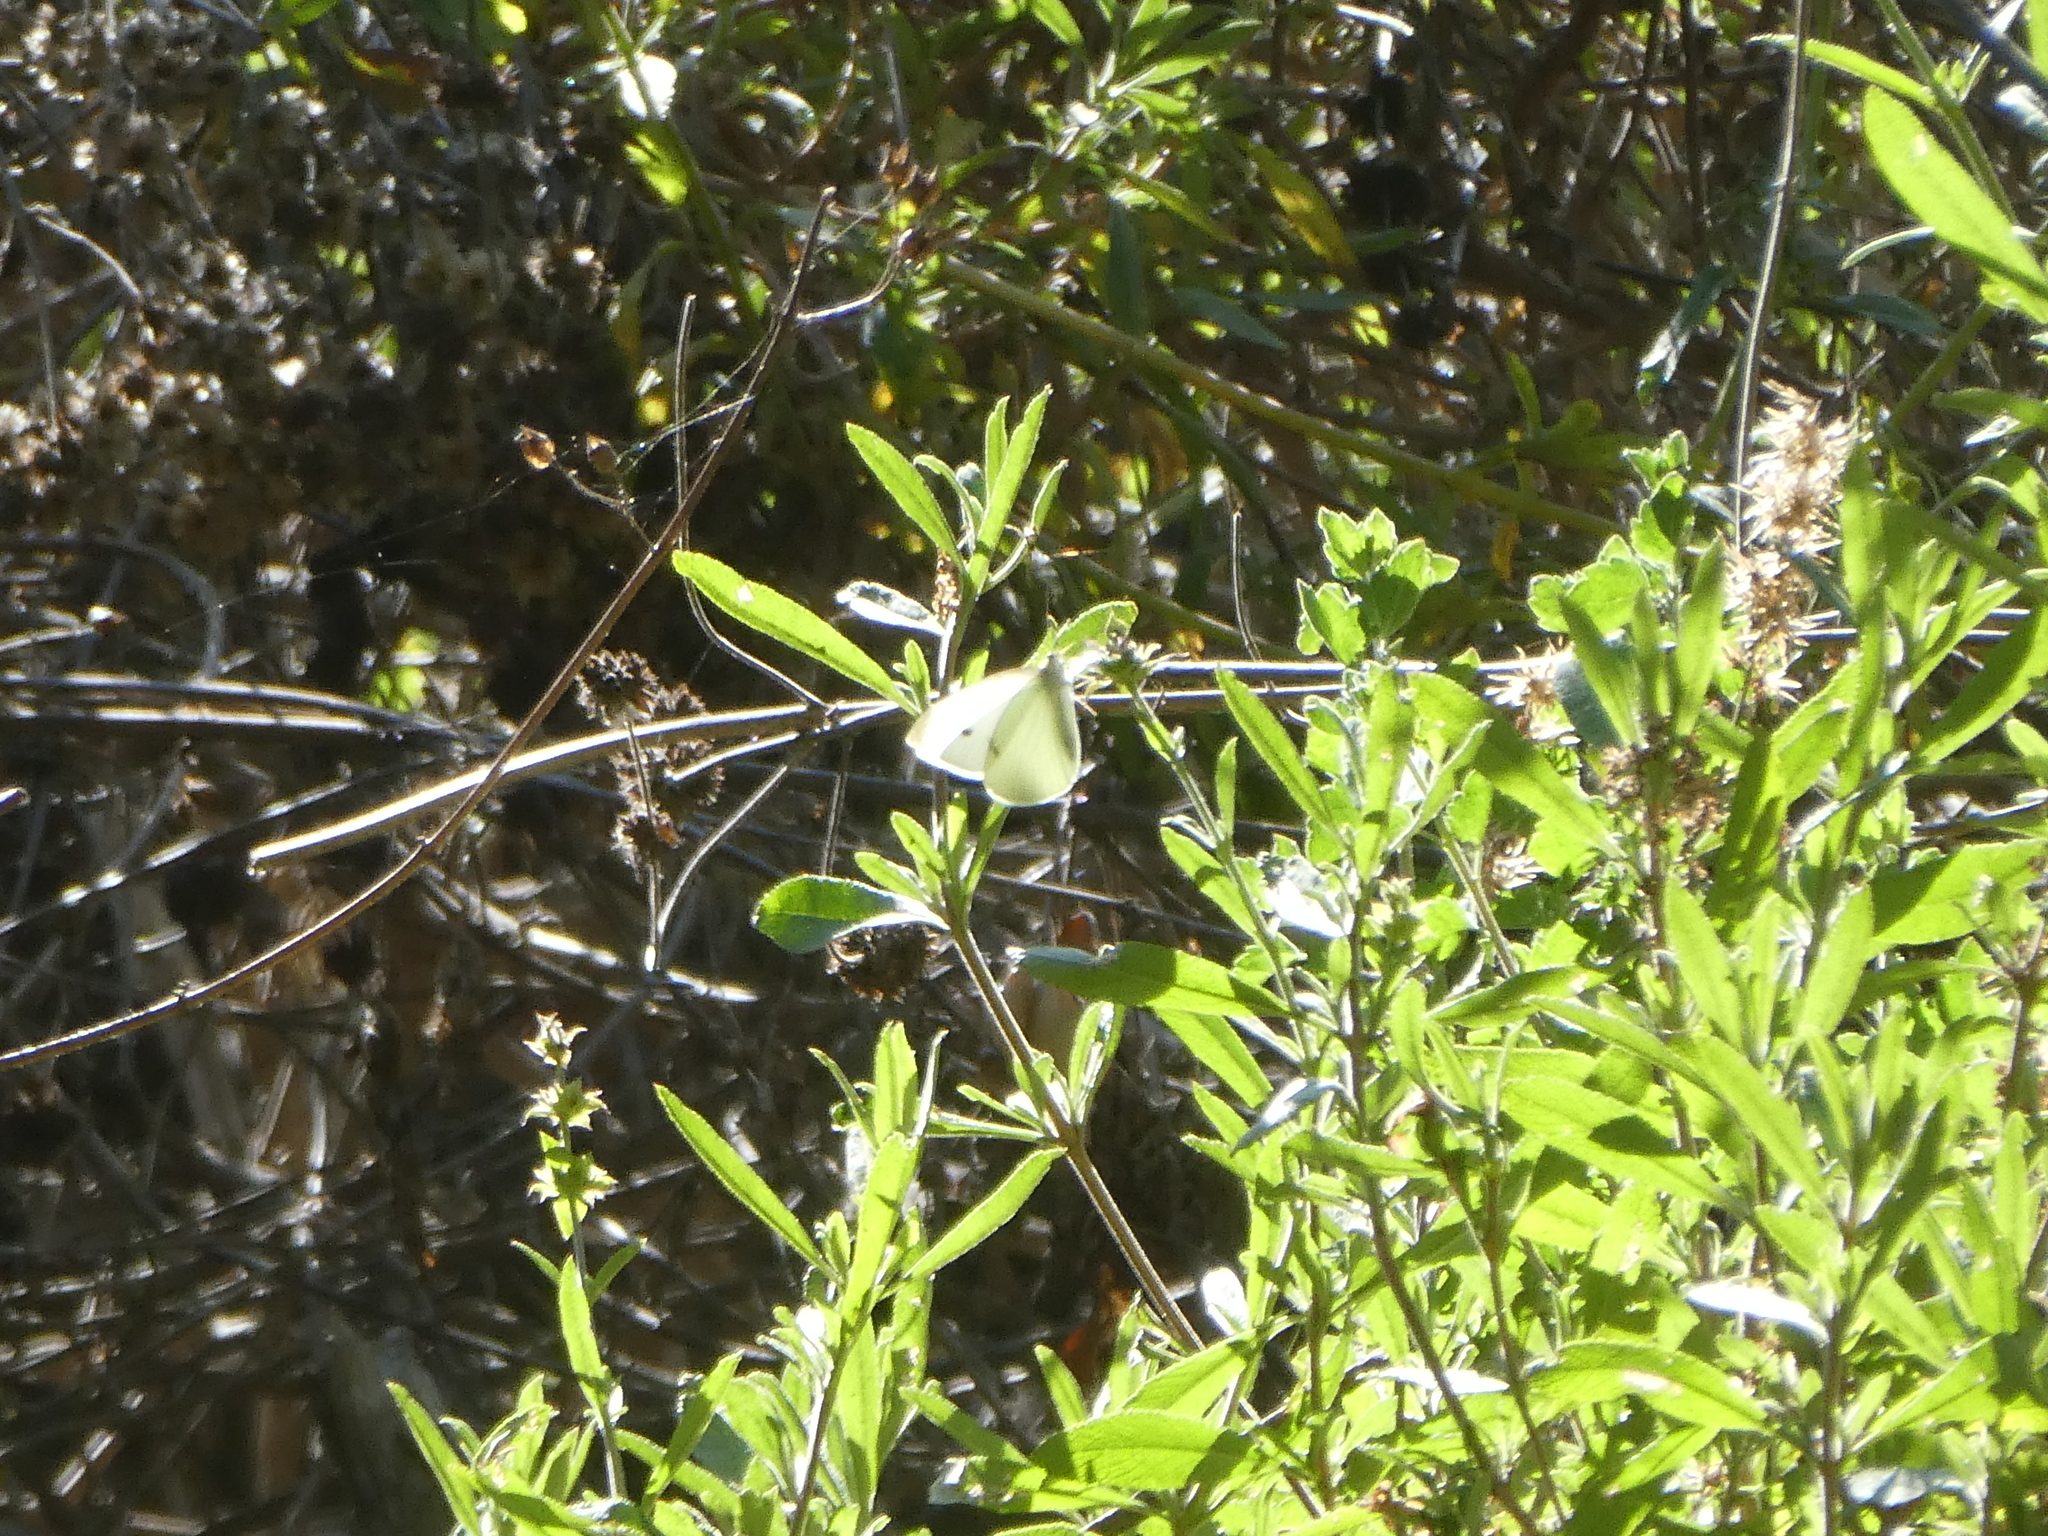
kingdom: Animalia
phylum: Arthropoda
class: Insecta
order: Lepidoptera
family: Pieridae
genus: Pieris
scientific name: Pieris rapae
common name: Small white
